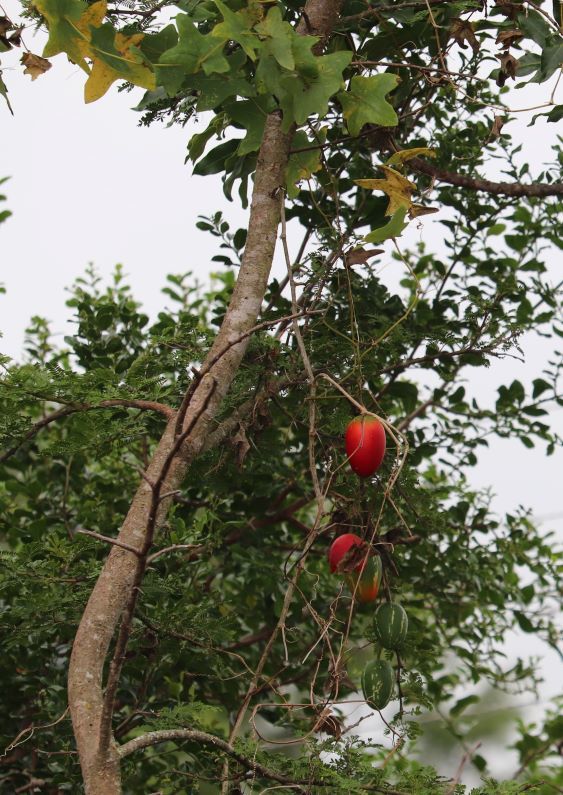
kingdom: Plantae
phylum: Tracheophyta
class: Magnoliopsida
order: Cucurbitales
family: Cucurbitaceae
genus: Coccinia
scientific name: Coccinia quinqueloba
